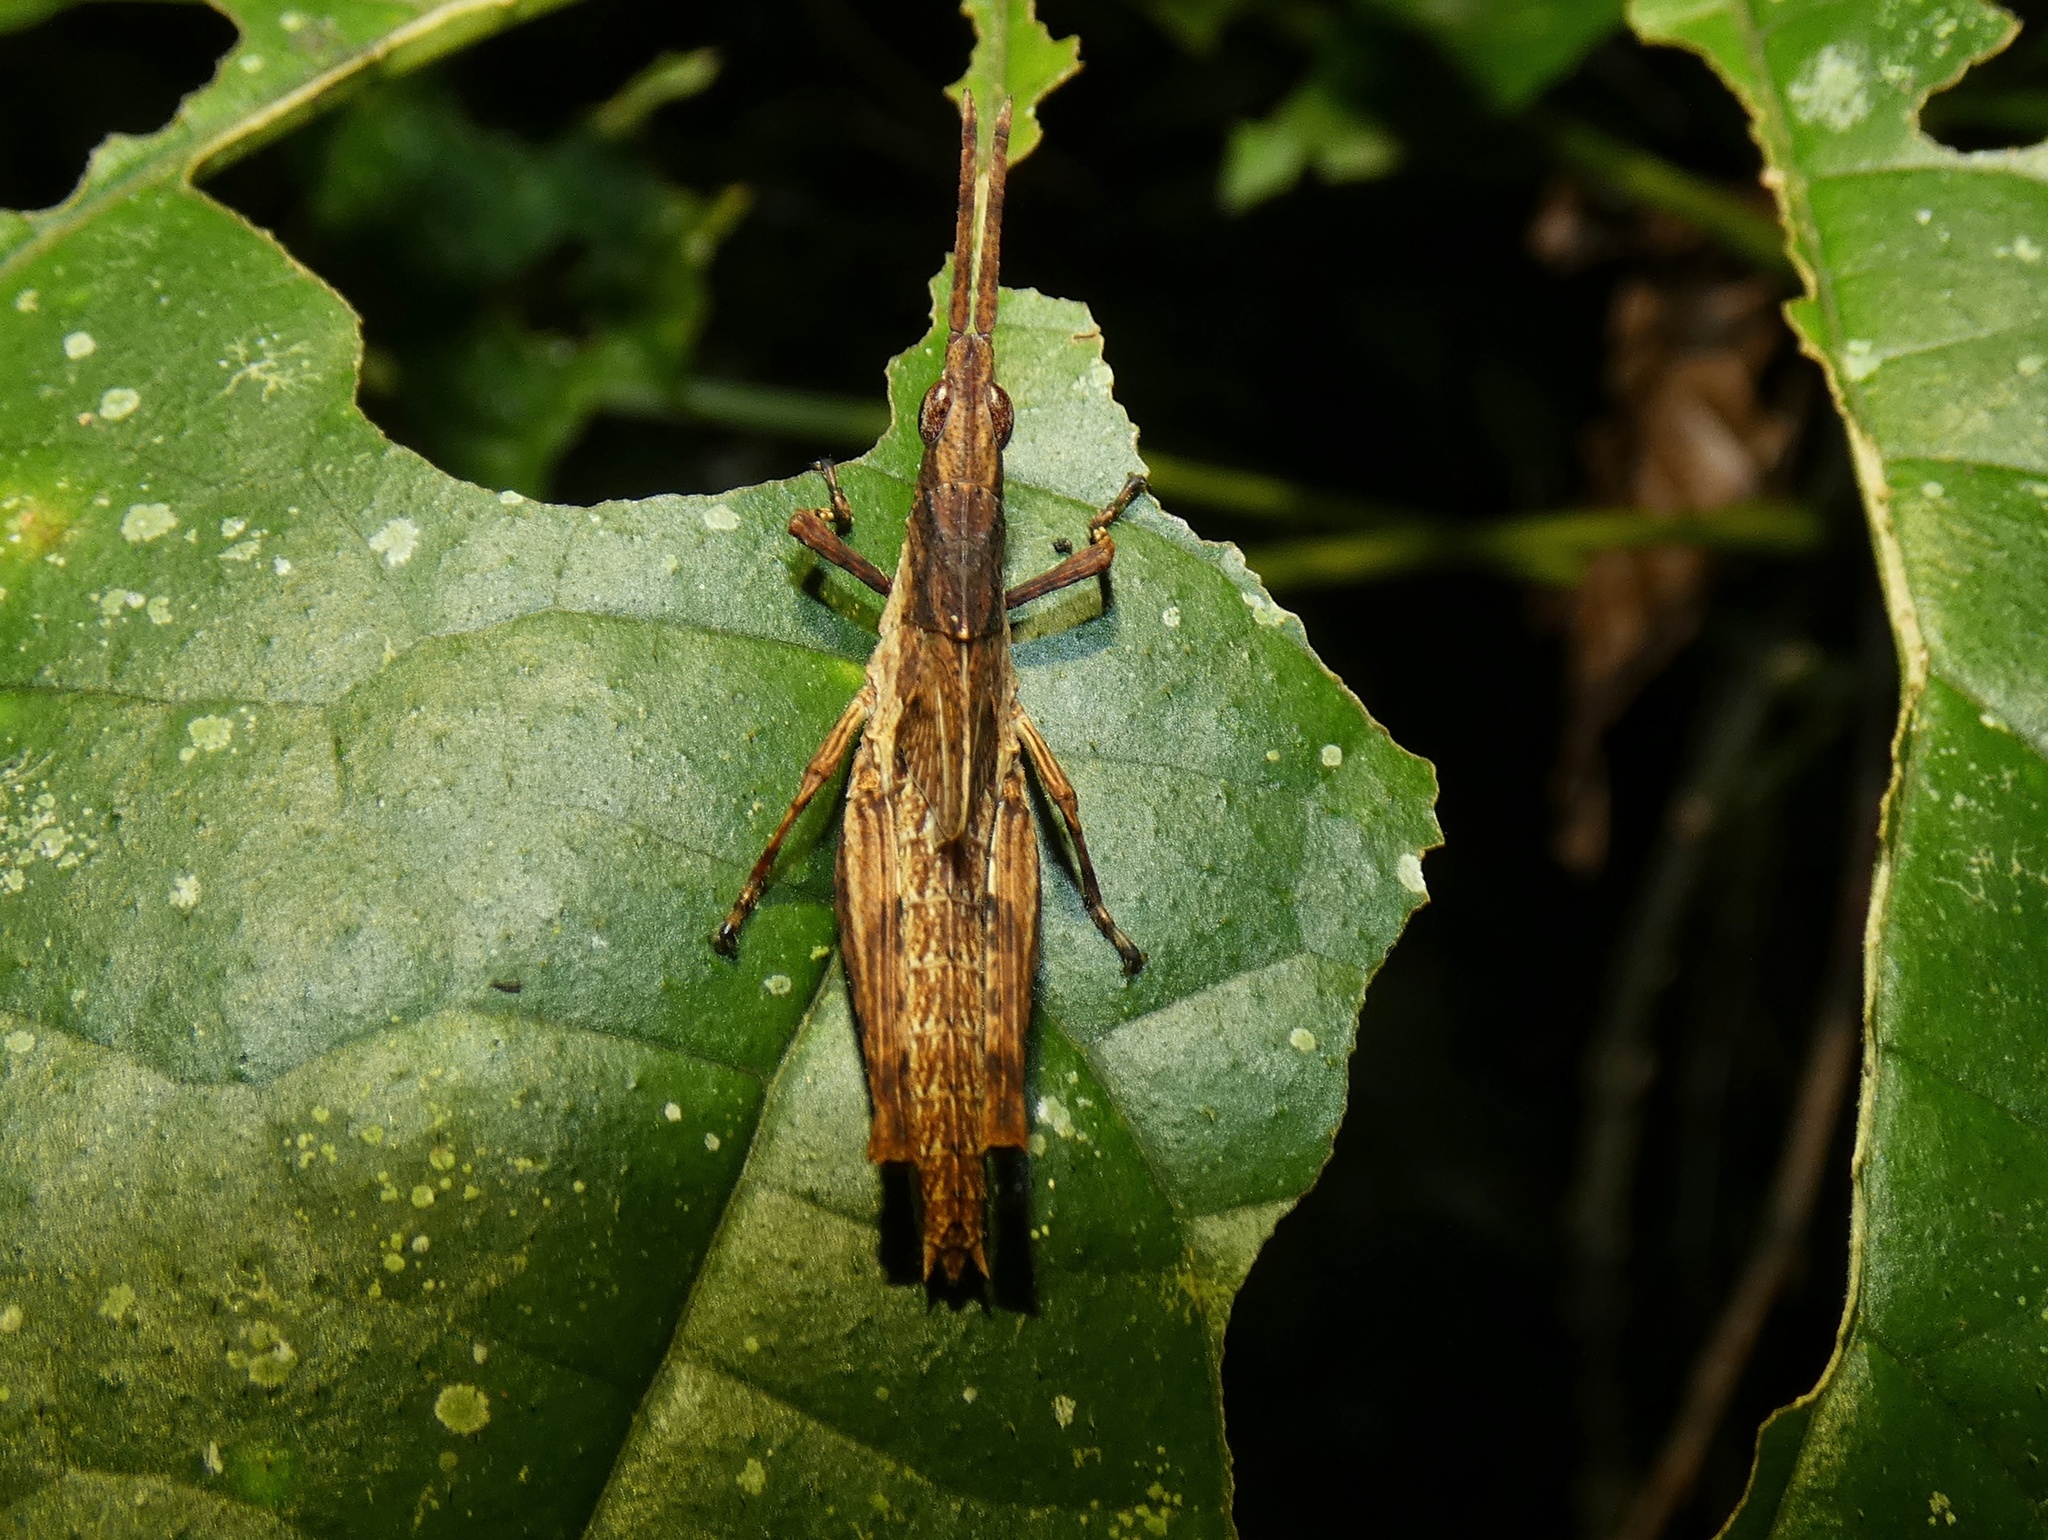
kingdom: Animalia
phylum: Arthropoda
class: Insecta
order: Orthoptera
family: Pyrgomorphidae
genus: Desmoptera
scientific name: Desmoptera truncatipennis
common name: Large forest pyrgomorph
